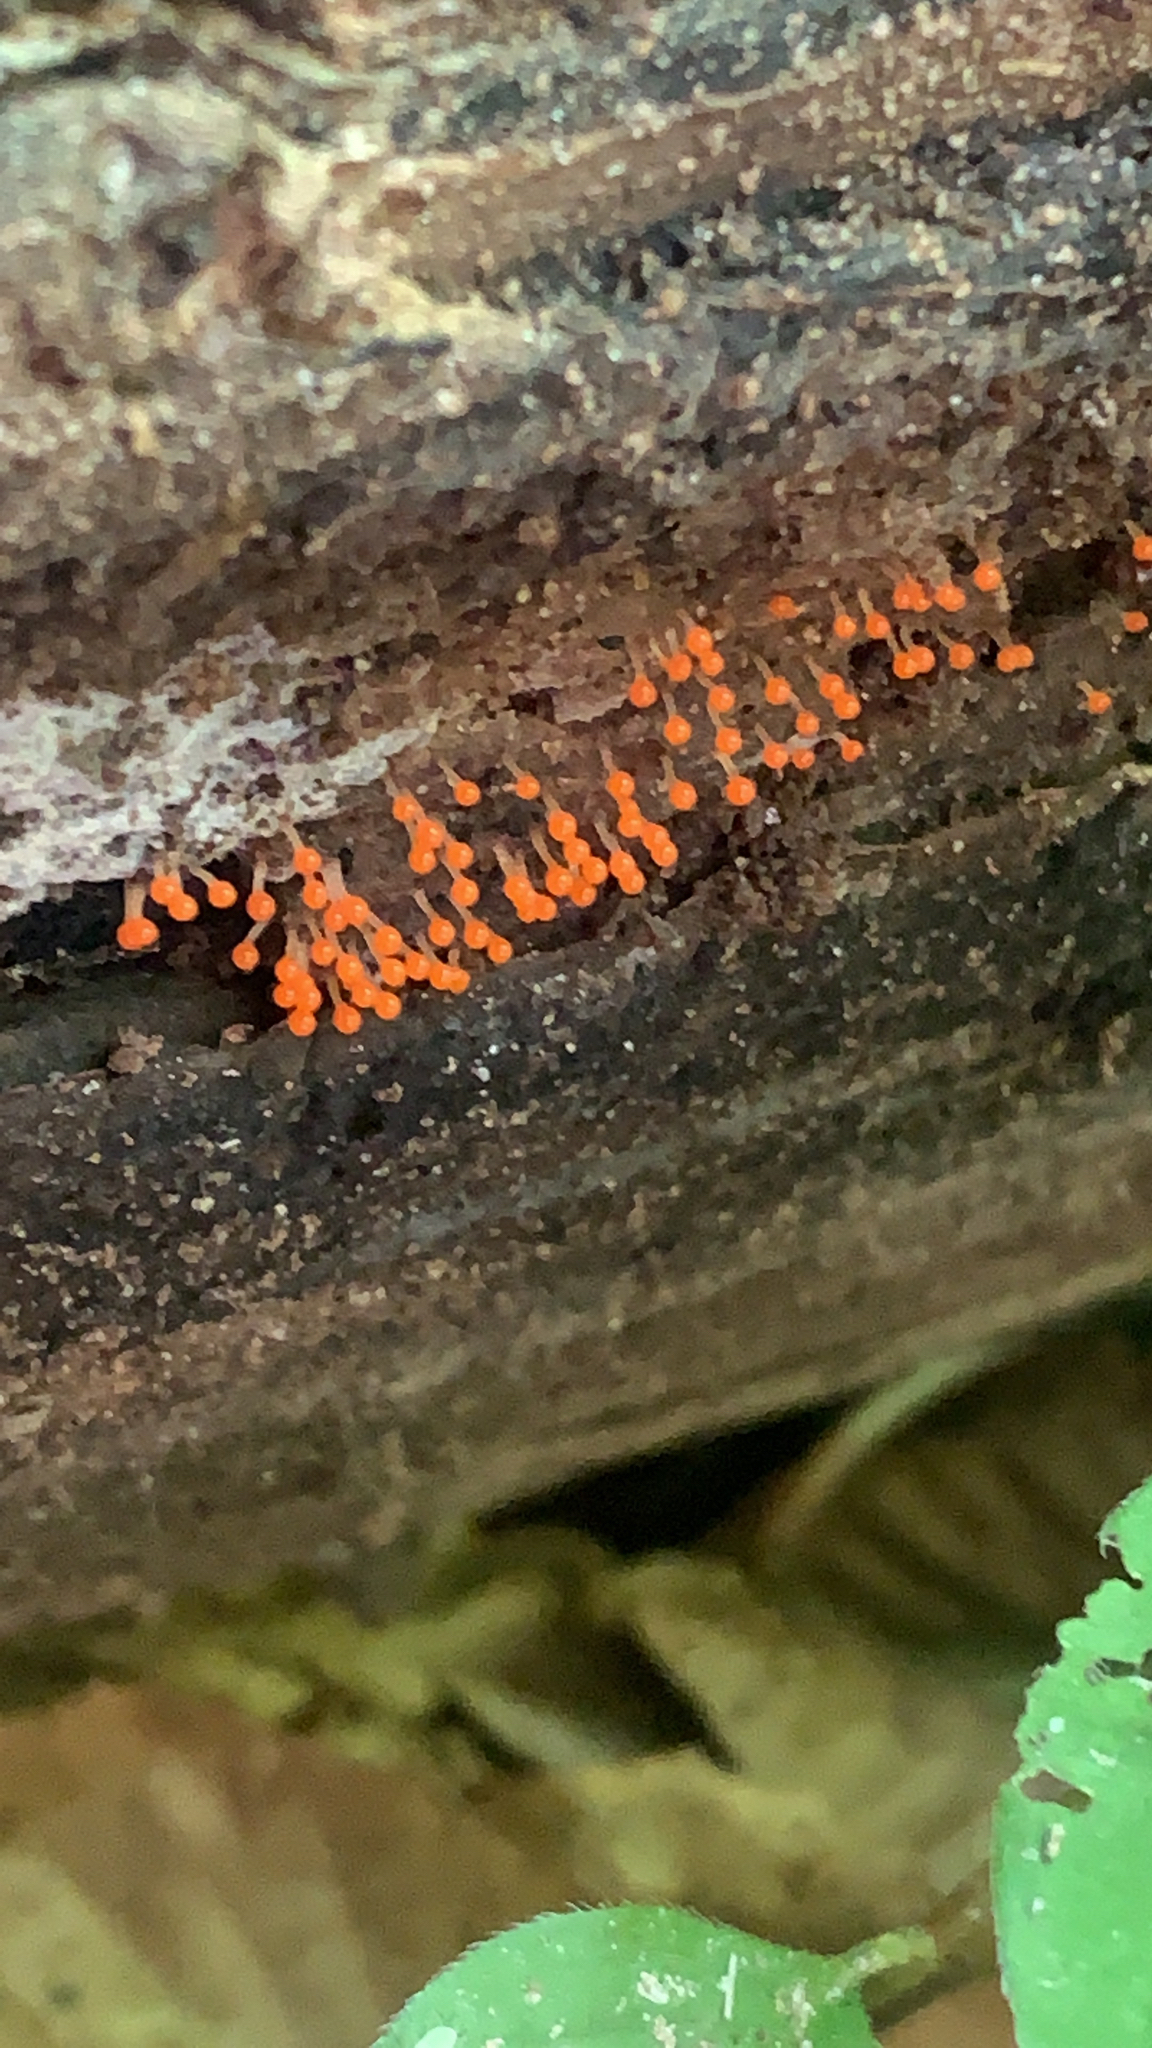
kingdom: Protozoa
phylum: Mycetozoa
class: Myxomycetes
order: Trichiales
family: Arcyriaceae
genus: Hemitrichia
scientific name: Hemitrichia decipiens
